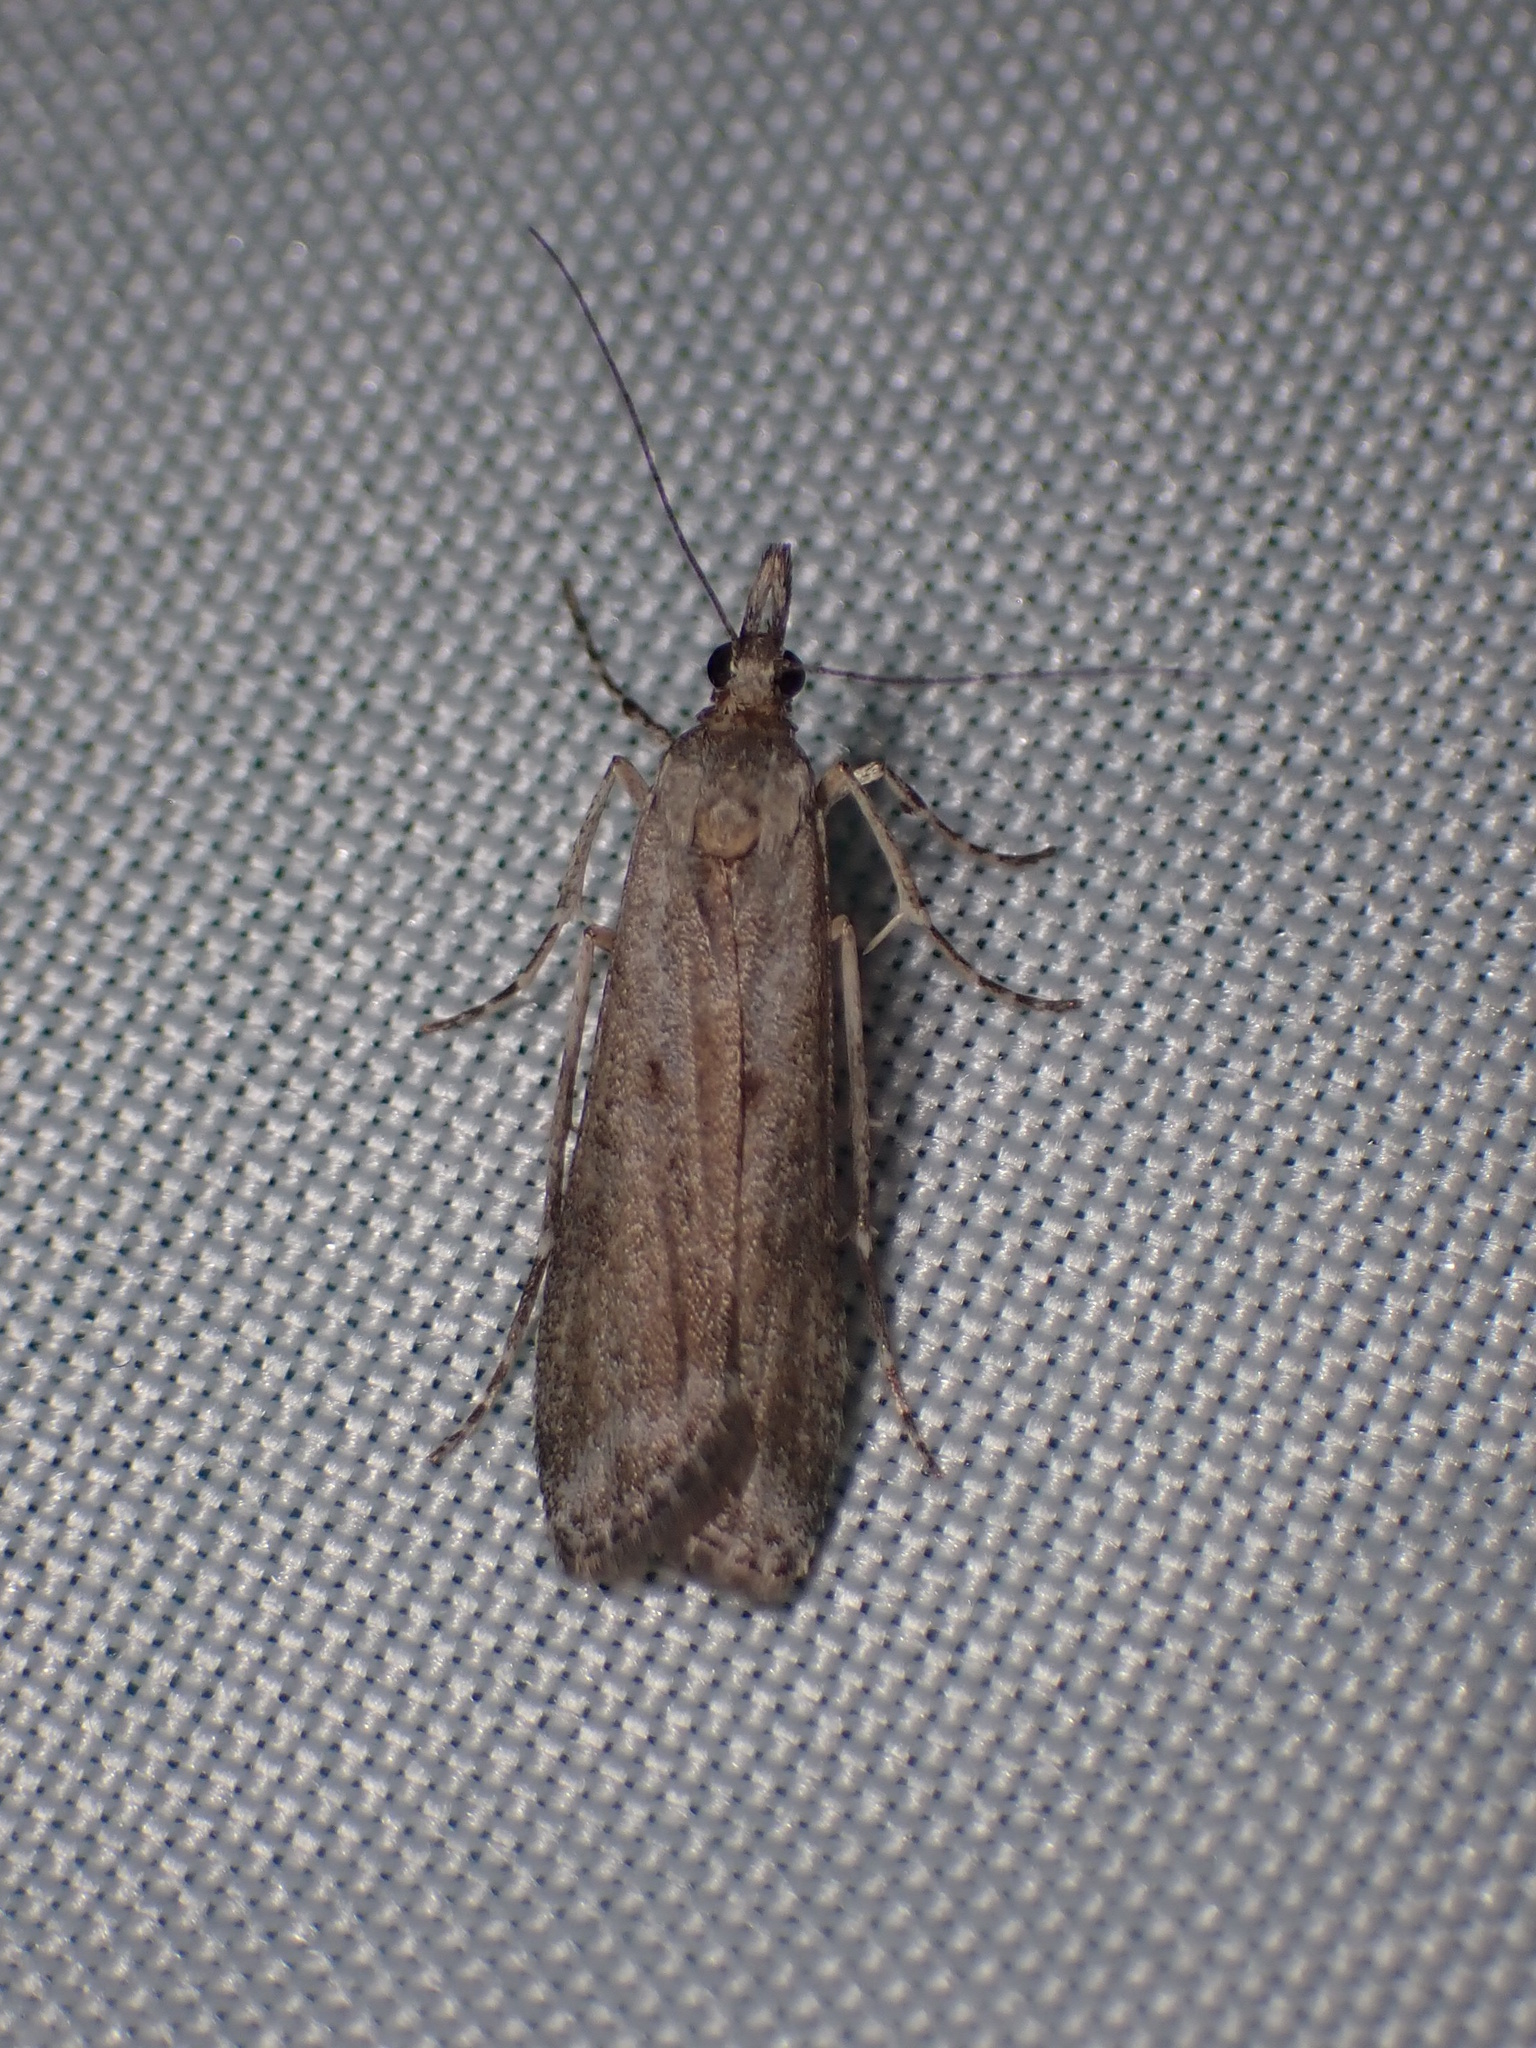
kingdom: Animalia
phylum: Arthropoda
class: Insecta
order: Lepidoptera
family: Crambidae
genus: Eudonia
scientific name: Eudonia leptalea
